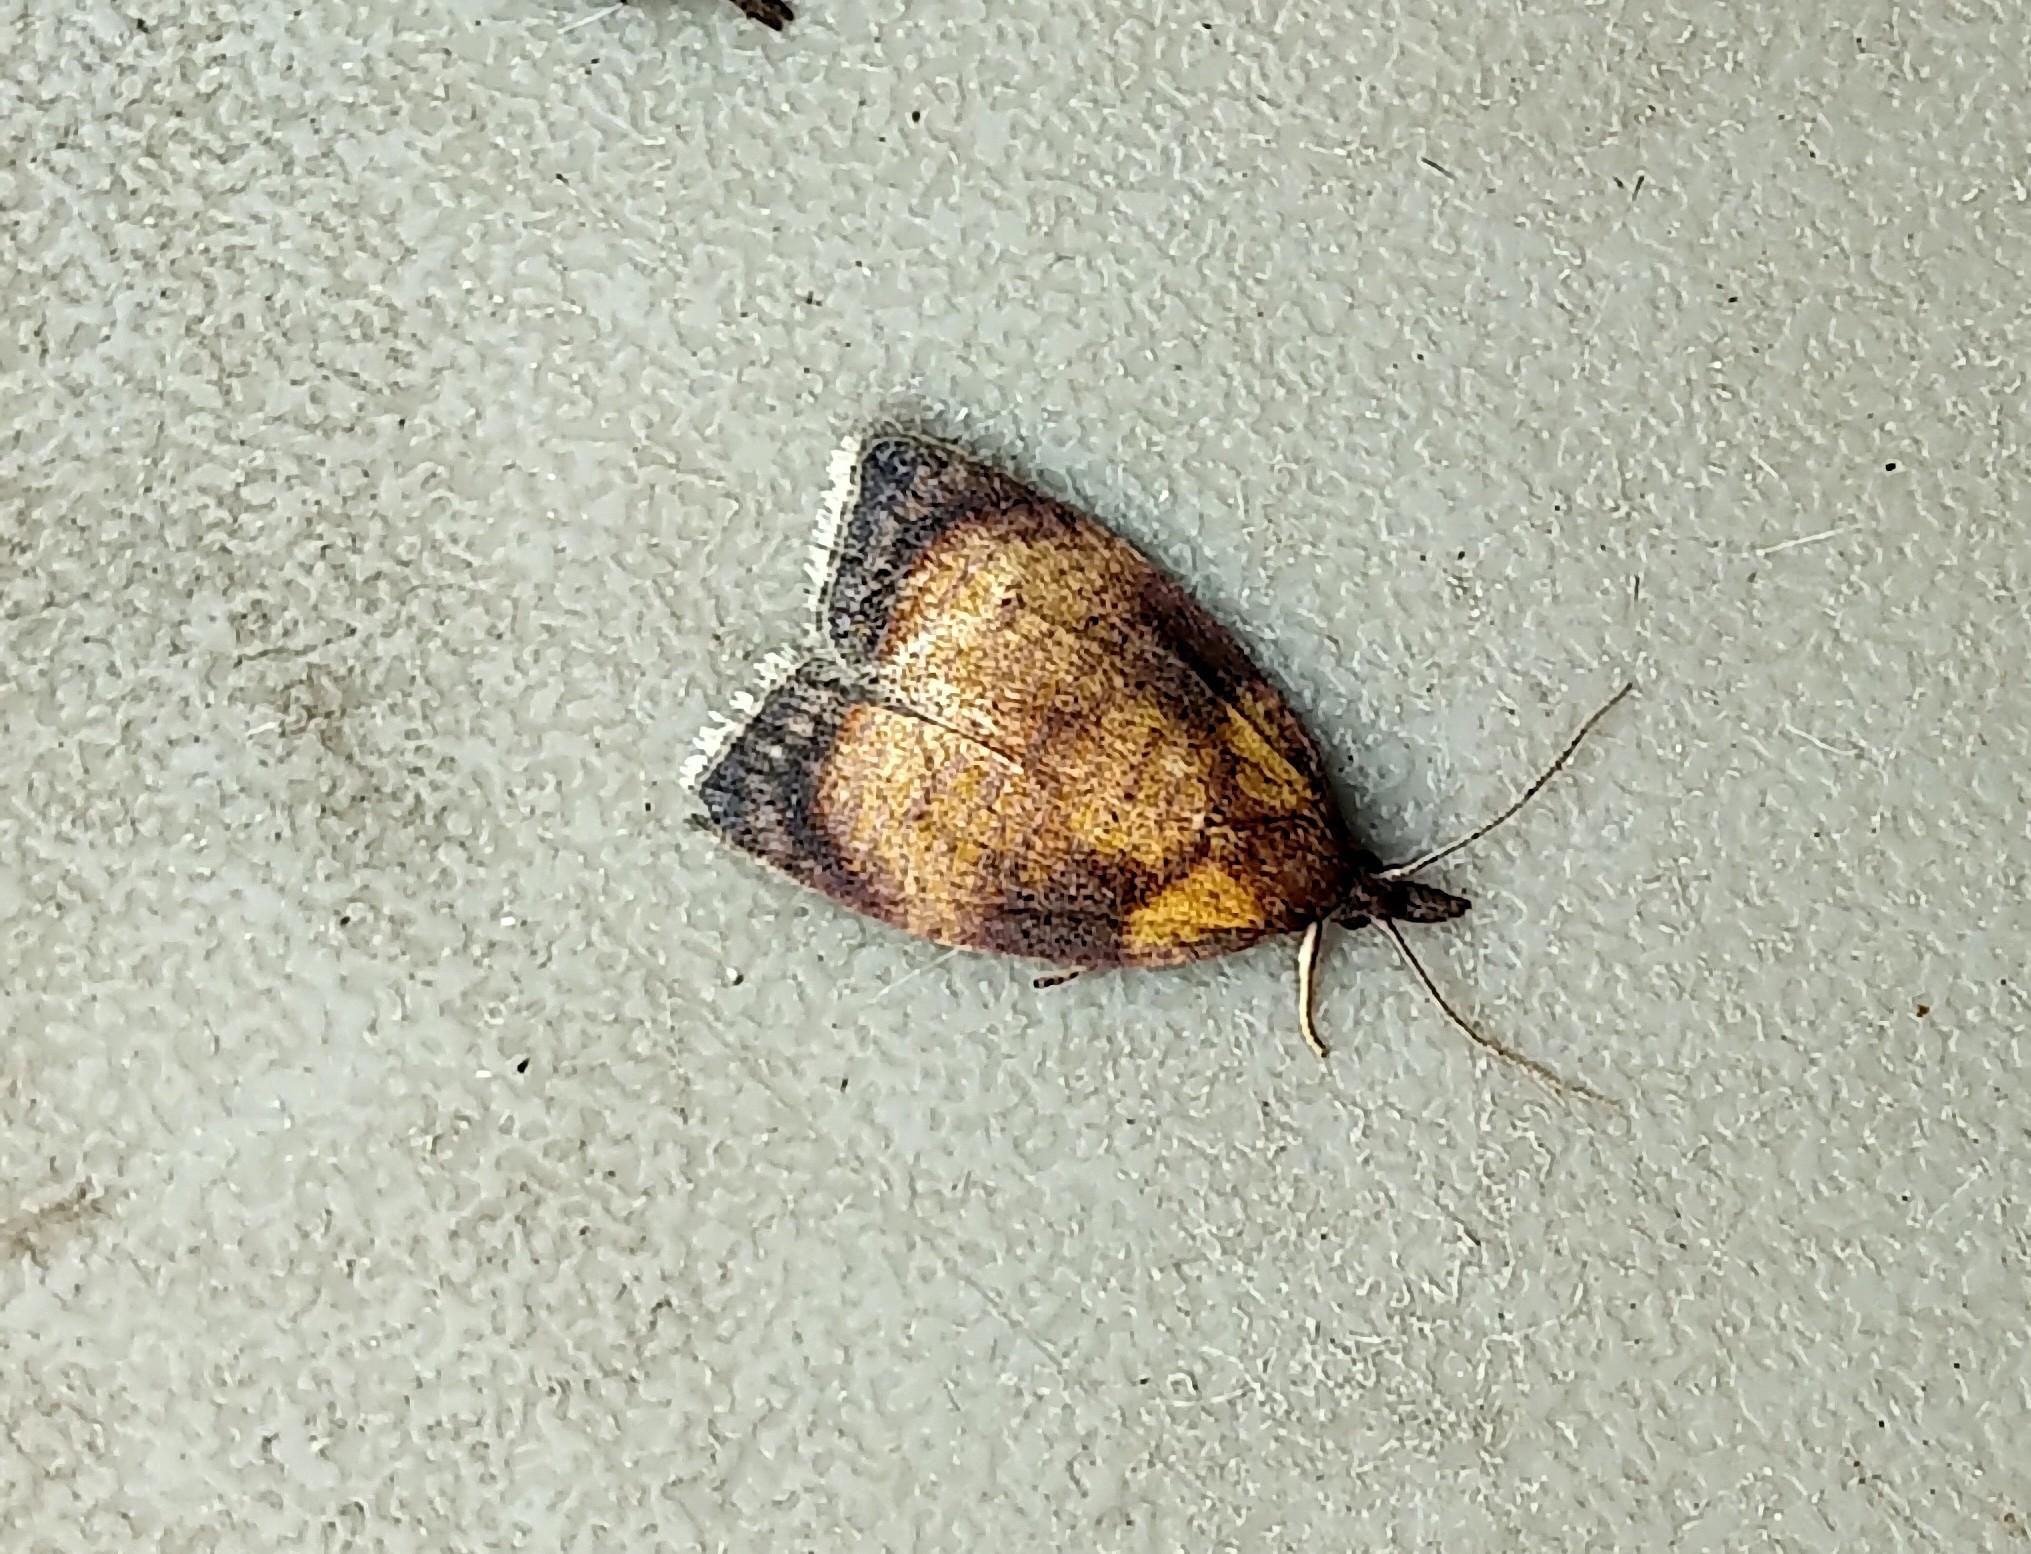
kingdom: Animalia
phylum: Arthropoda
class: Insecta
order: Lepidoptera
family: Tortricidae
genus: Sparganothis
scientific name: Sparganothis flavibasana
